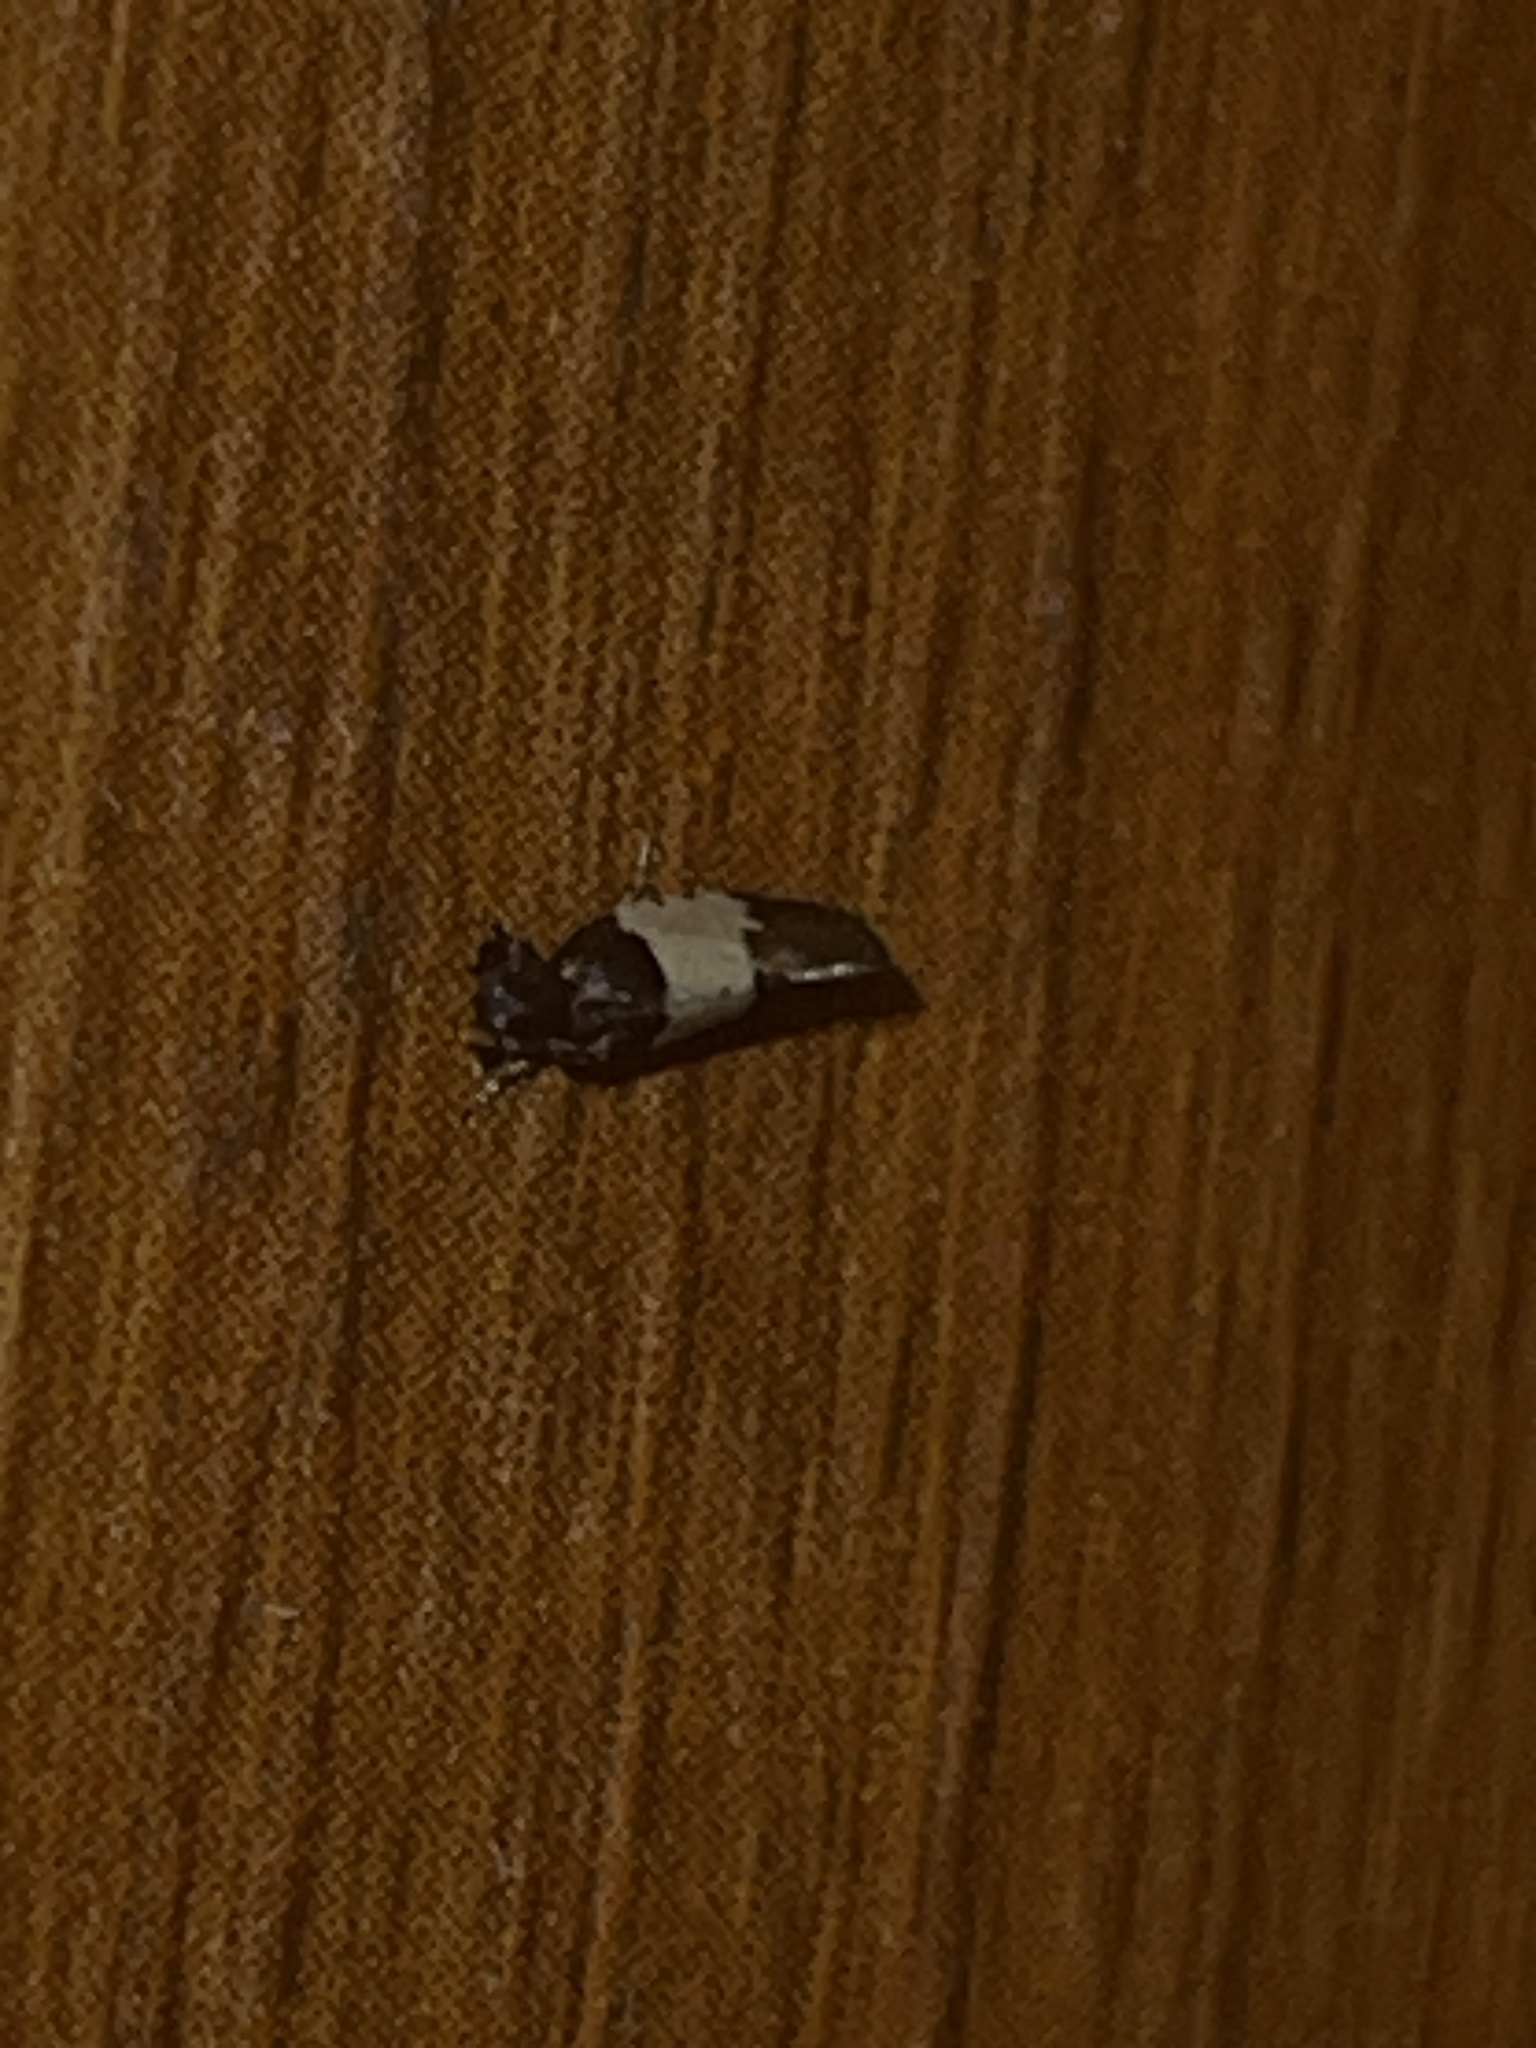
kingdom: Animalia
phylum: Arthropoda
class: Insecta
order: Lepidoptera
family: Psychidae
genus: Kearfottia
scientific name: Kearfottia albifasciella
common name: White-patched kearfottia
